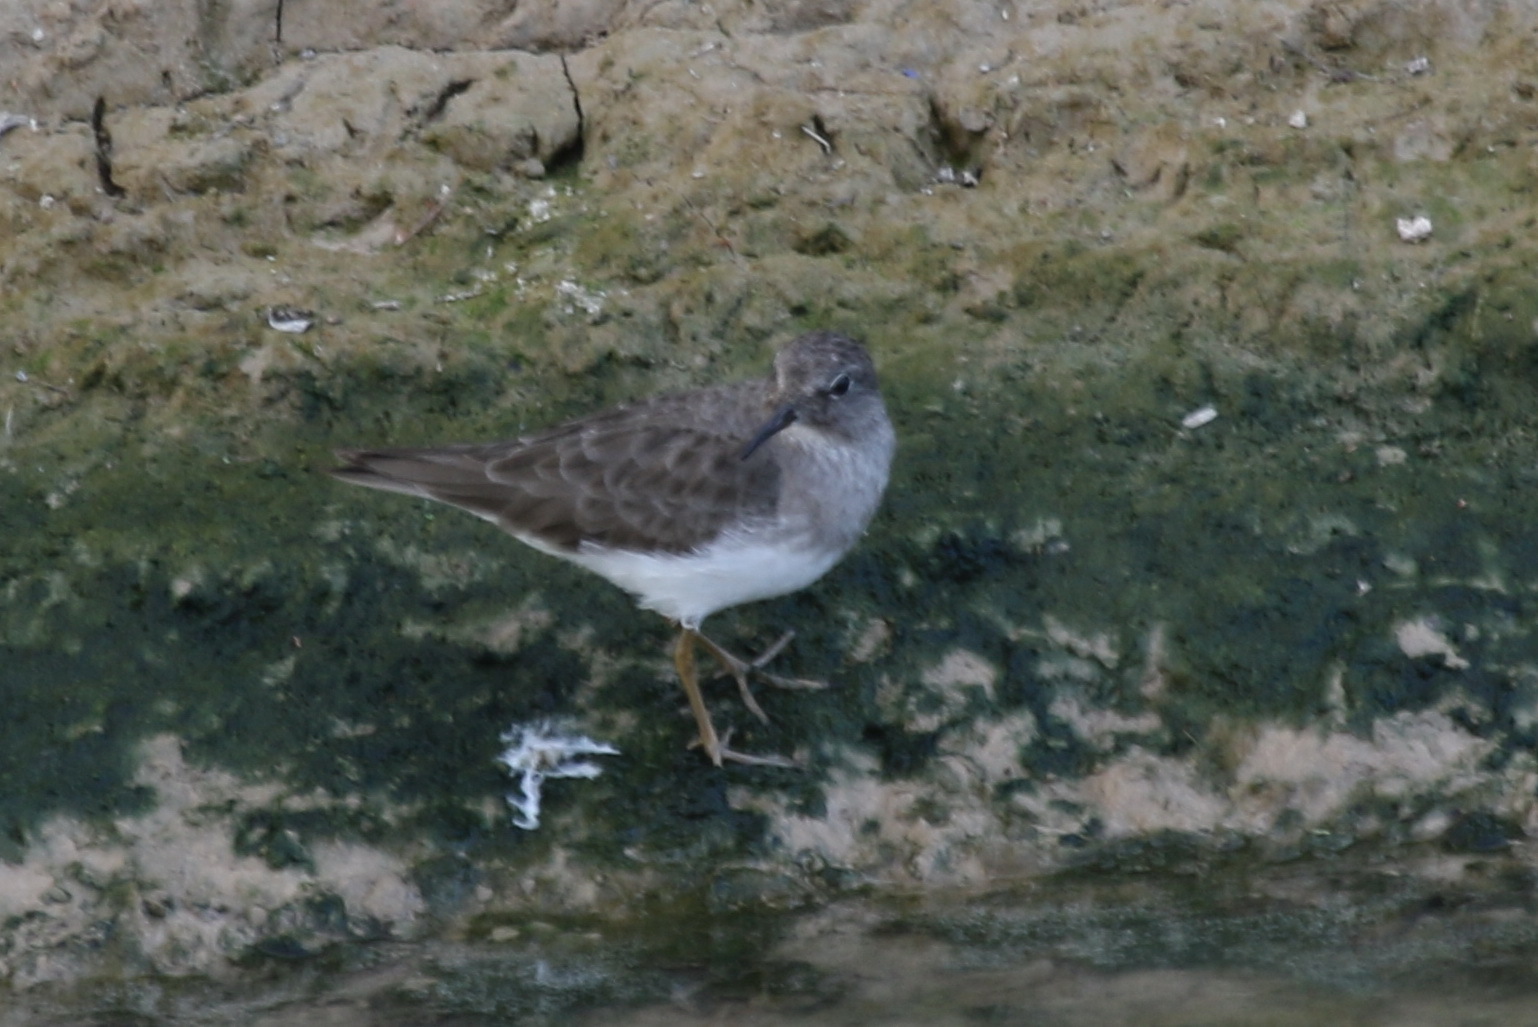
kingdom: Animalia
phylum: Chordata
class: Aves
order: Charadriiformes
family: Scolopacidae
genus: Calidris
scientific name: Calidris temminckii
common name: Temminck's stint
